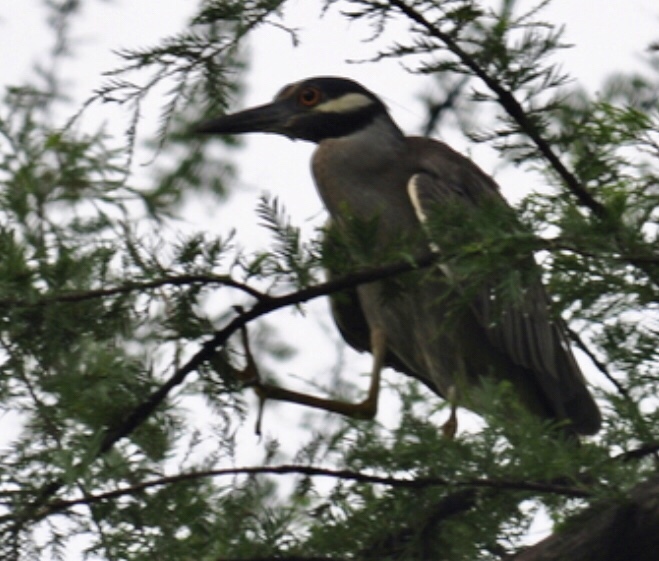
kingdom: Animalia
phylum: Chordata
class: Aves
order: Pelecaniformes
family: Ardeidae
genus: Nyctanassa
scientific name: Nyctanassa violacea
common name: Yellow-crowned night heron
